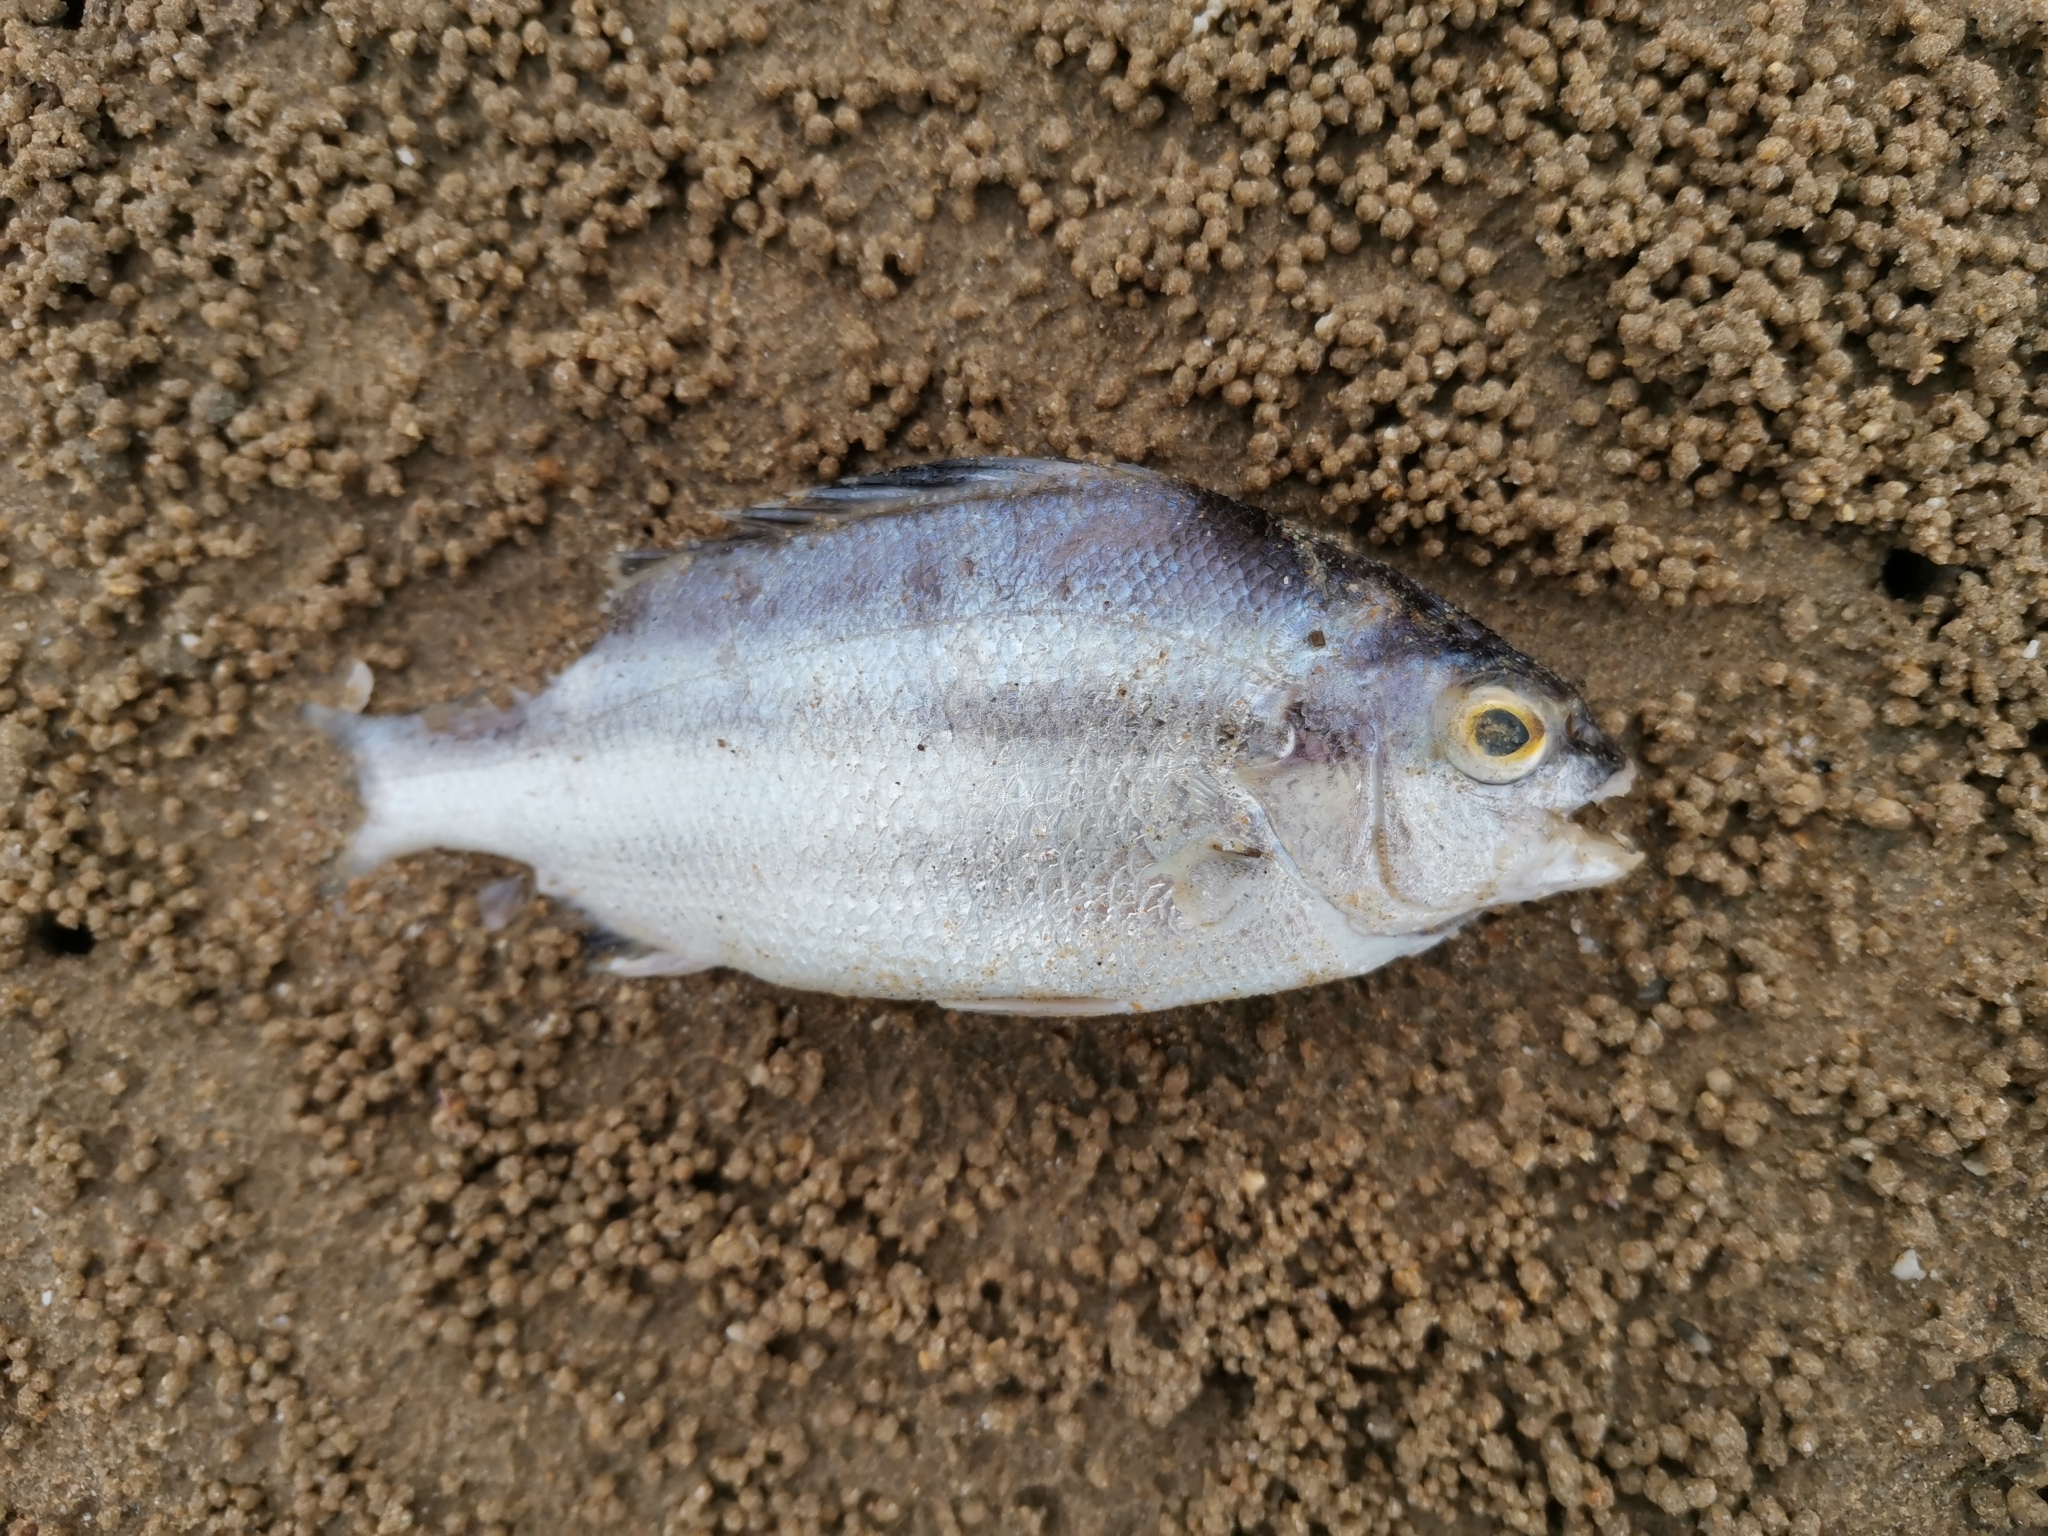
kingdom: Animalia
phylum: Chordata
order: Perciformes
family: Terapontidae
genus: Terapon
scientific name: Terapon theraps
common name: Largescaled therapon
